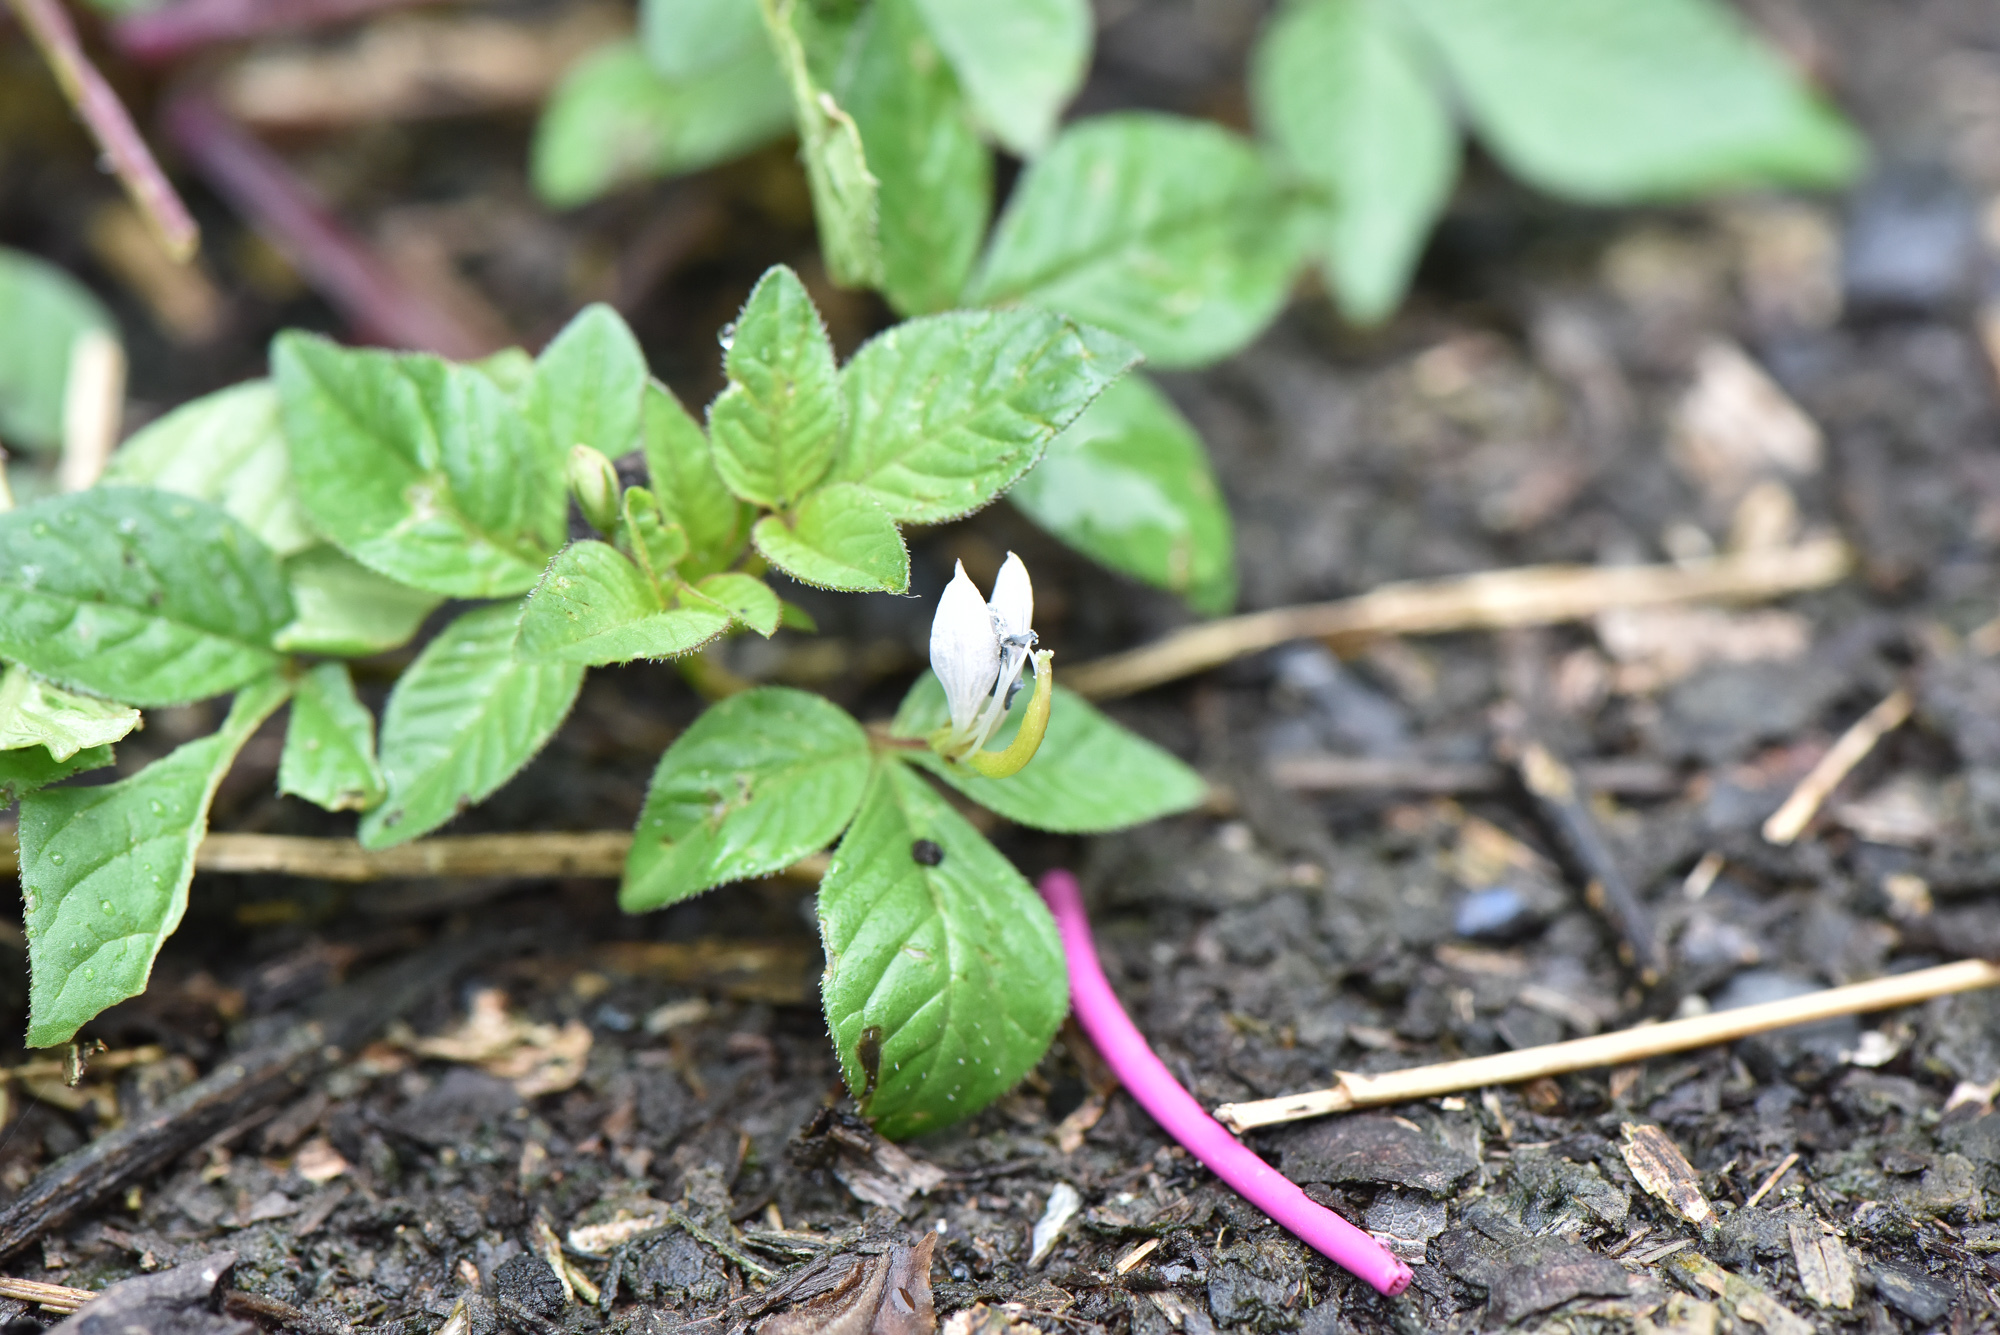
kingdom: Plantae
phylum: Tracheophyta
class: Magnoliopsida
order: Brassicales
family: Cleomaceae
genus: Sieruela
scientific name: Sieruela rutidosperma
